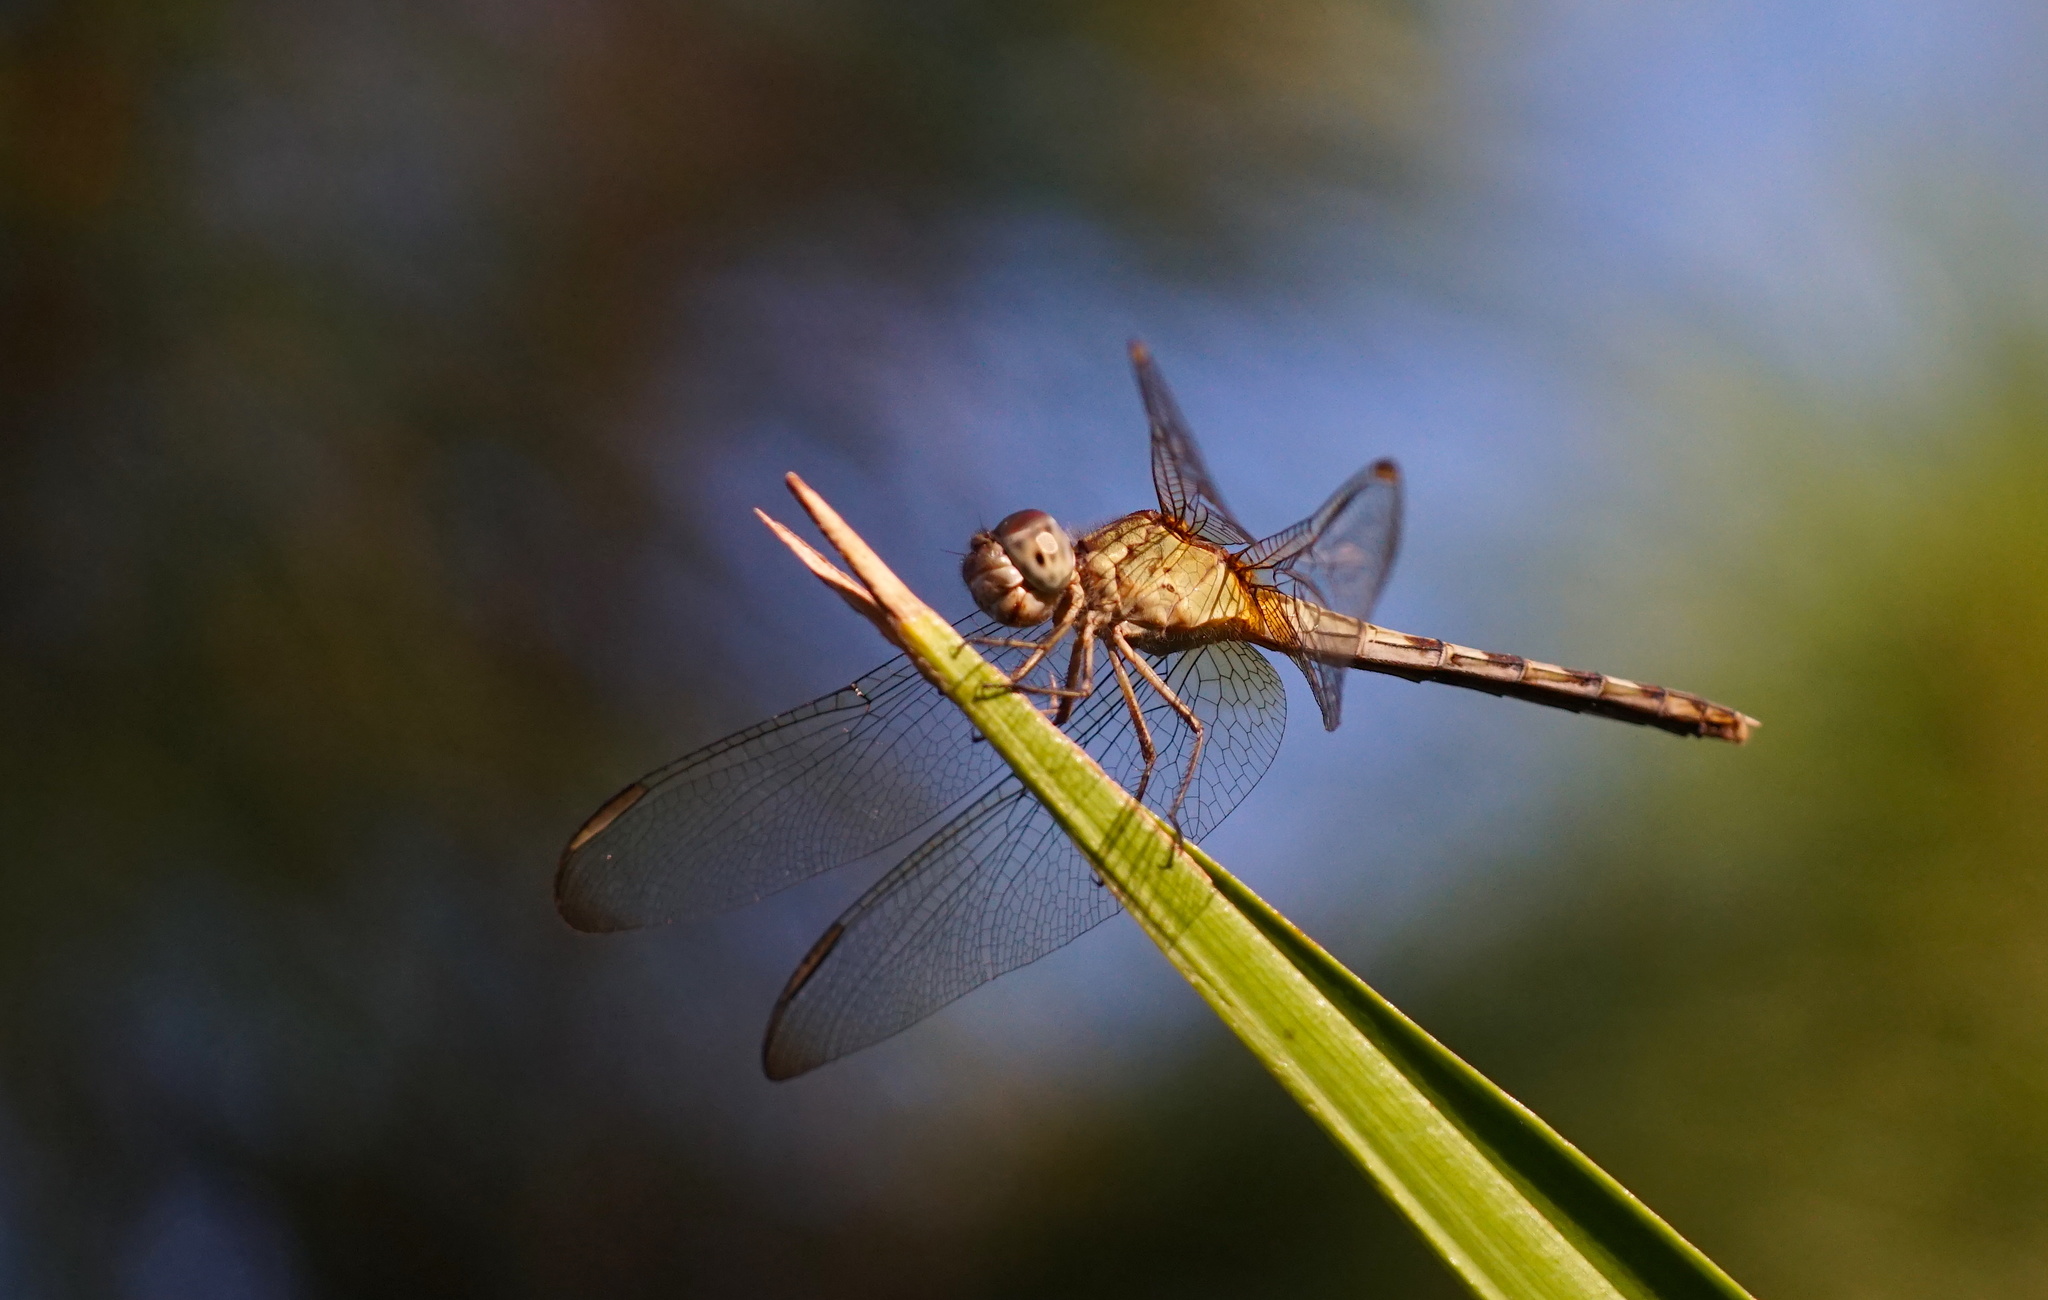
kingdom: Animalia
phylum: Arthropoda
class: Insecta
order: Odonata
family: Libellulidae
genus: Erythrodiplax
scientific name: Erythrodiplax umbrata
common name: Band-winged dragonlet
